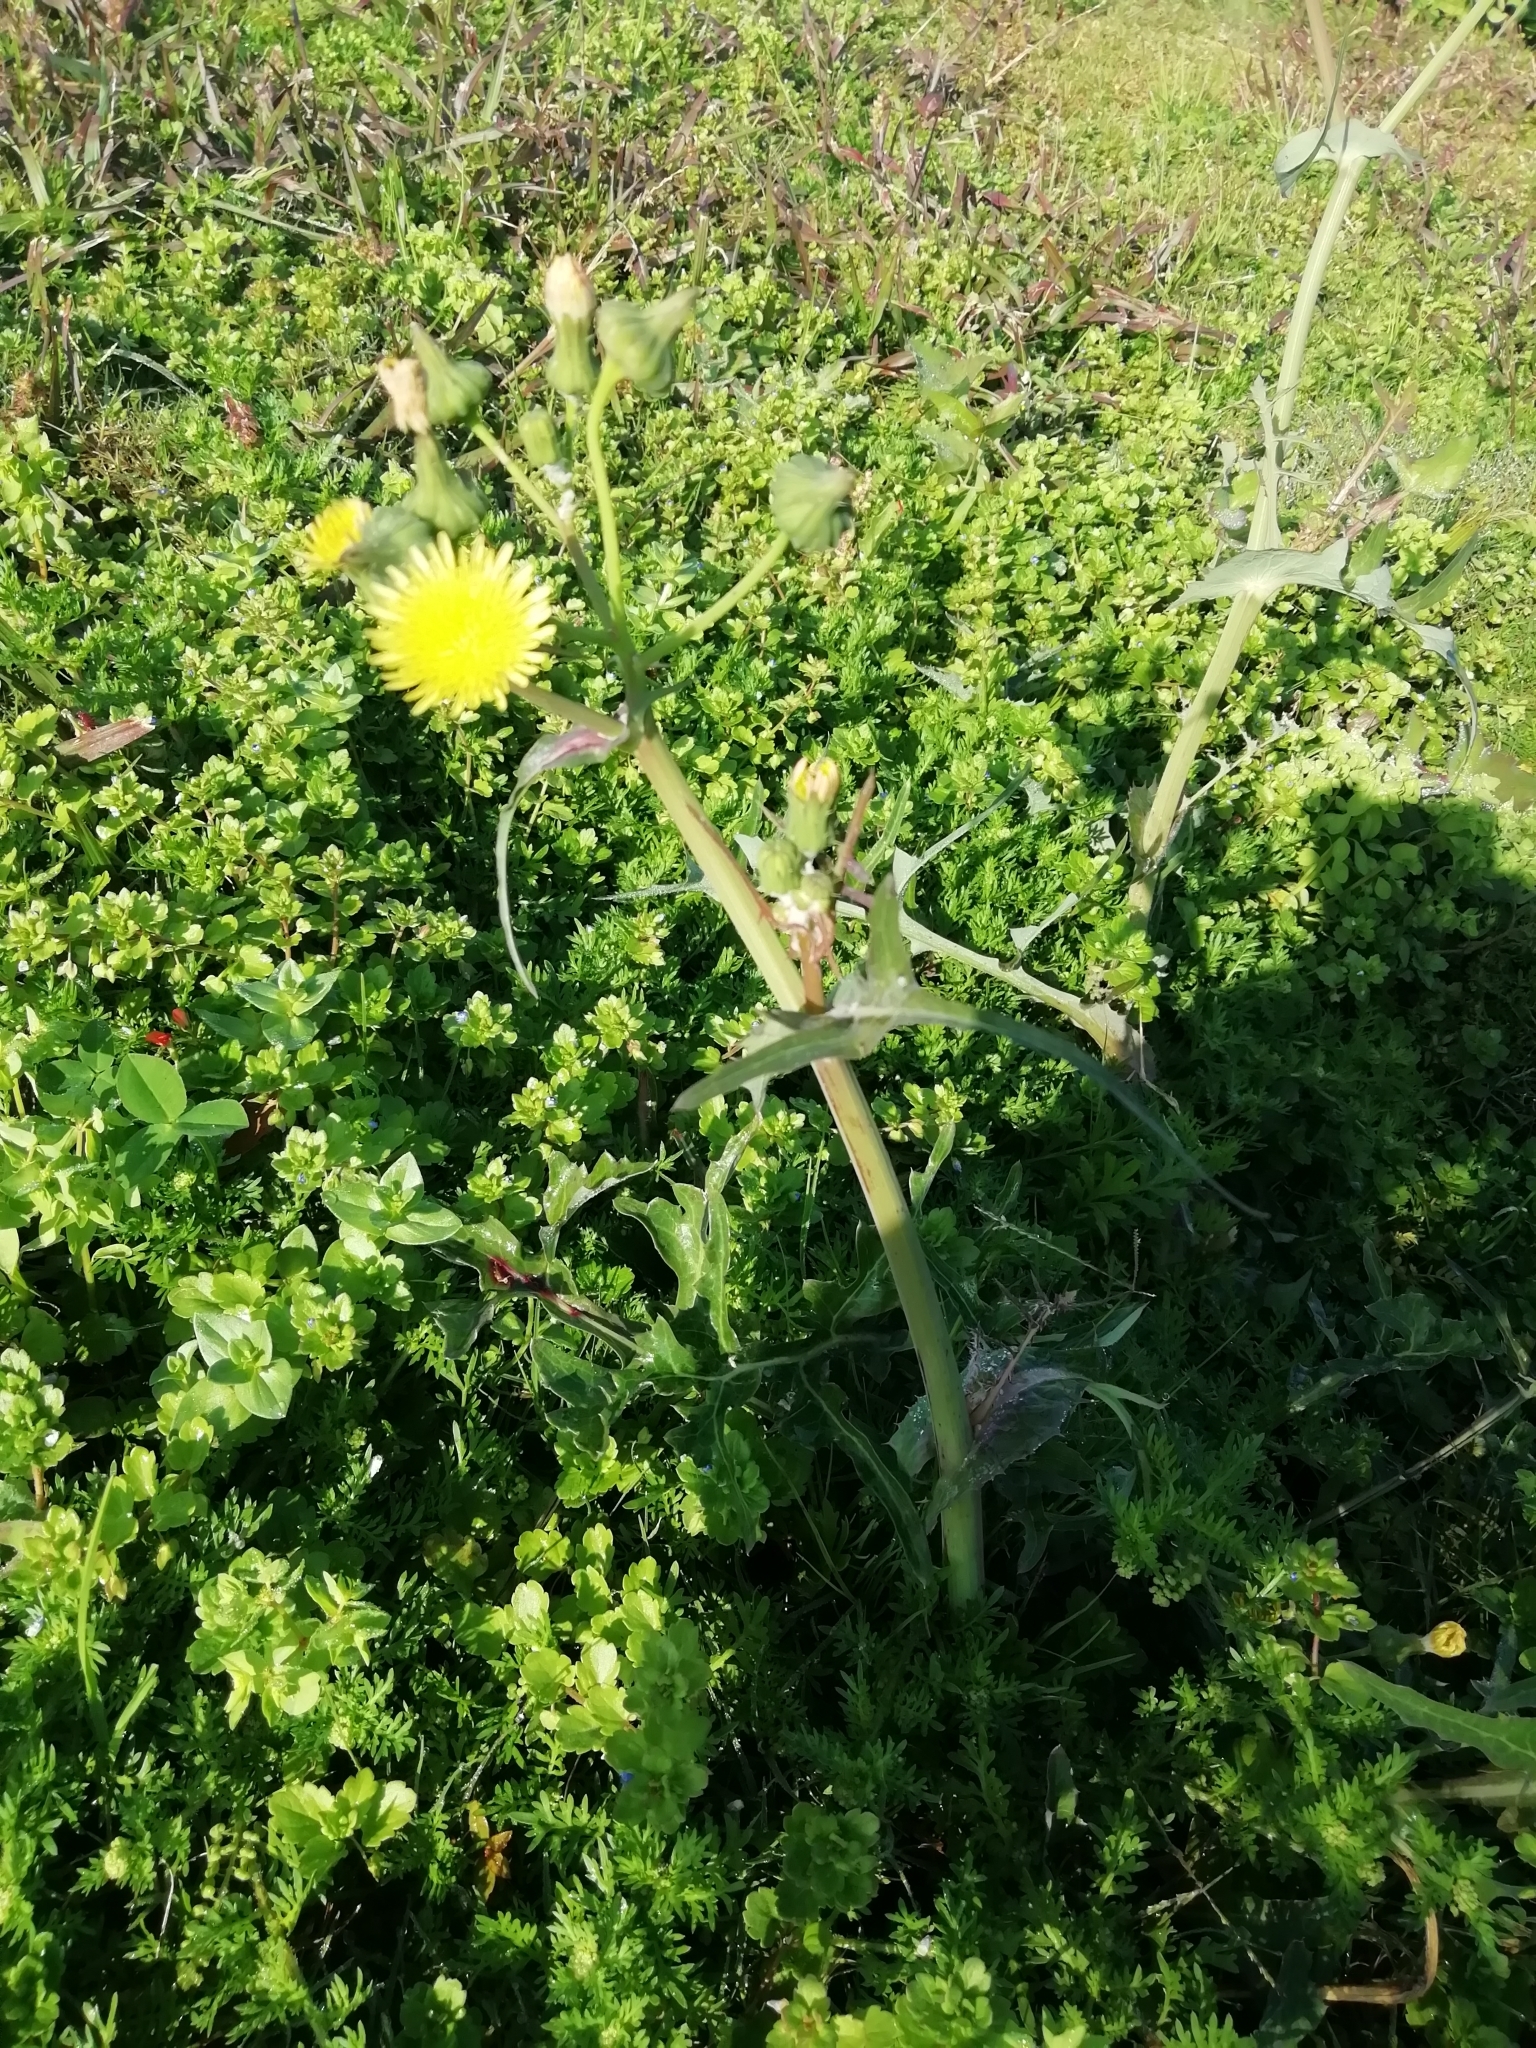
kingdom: Plantae
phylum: Tracheophyta
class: Magnoliopsida
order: Asterales
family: Asteraceae
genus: Sonchus
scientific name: Sonchus oleraceus
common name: Common sowthistle
